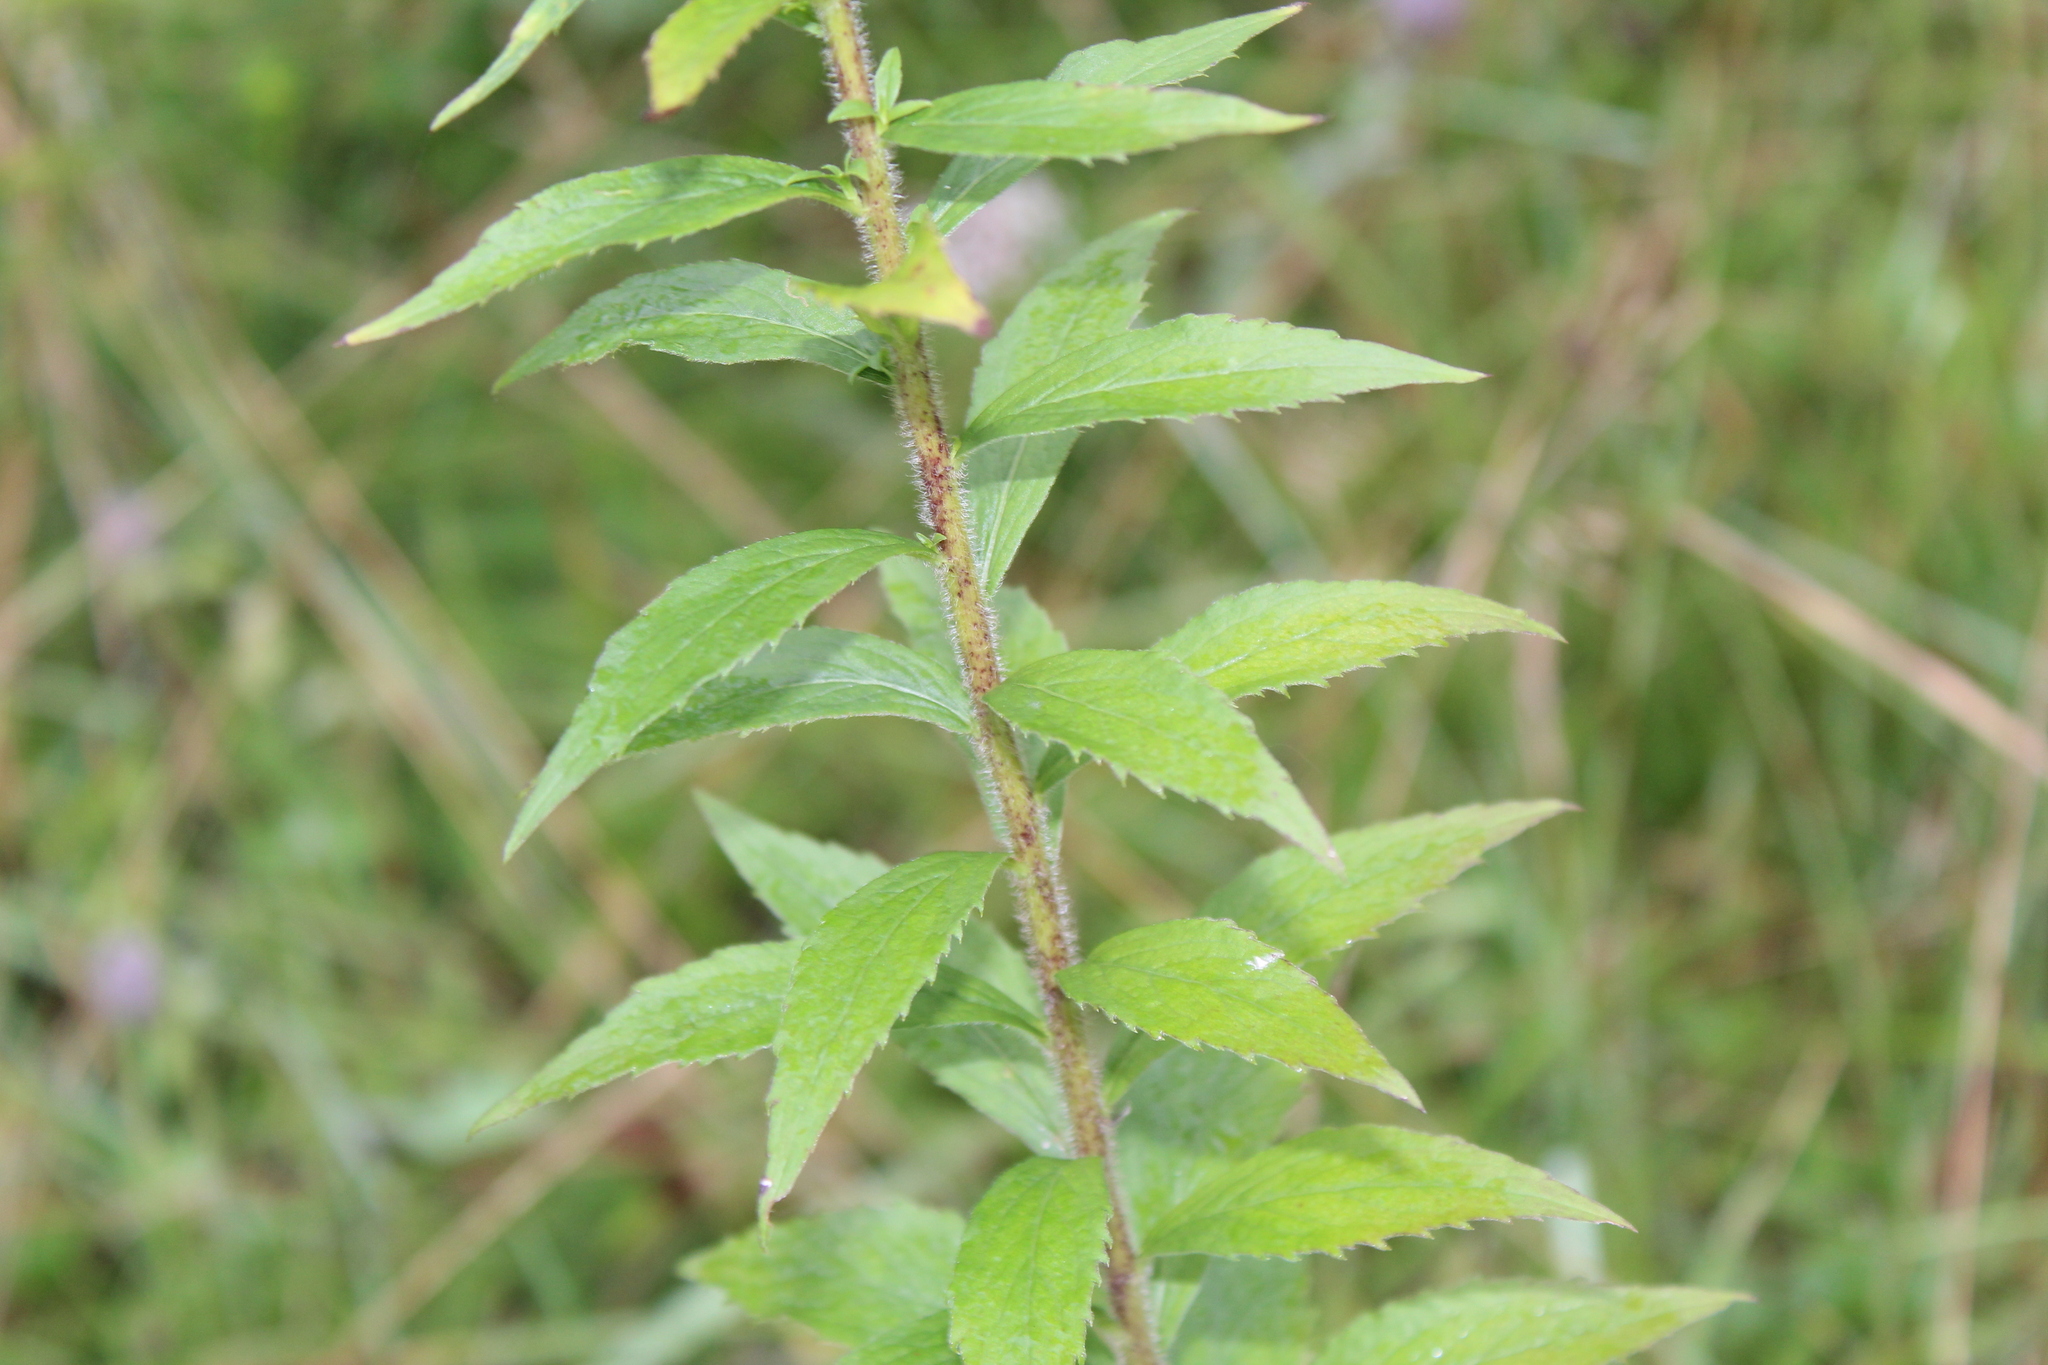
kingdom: Plantae
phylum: Tracheophyta
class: Magnoliopsida
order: Asterales
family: Asteraceae
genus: Solidago
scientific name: Solidago rugosa
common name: Rough-stemmed goldenrod
